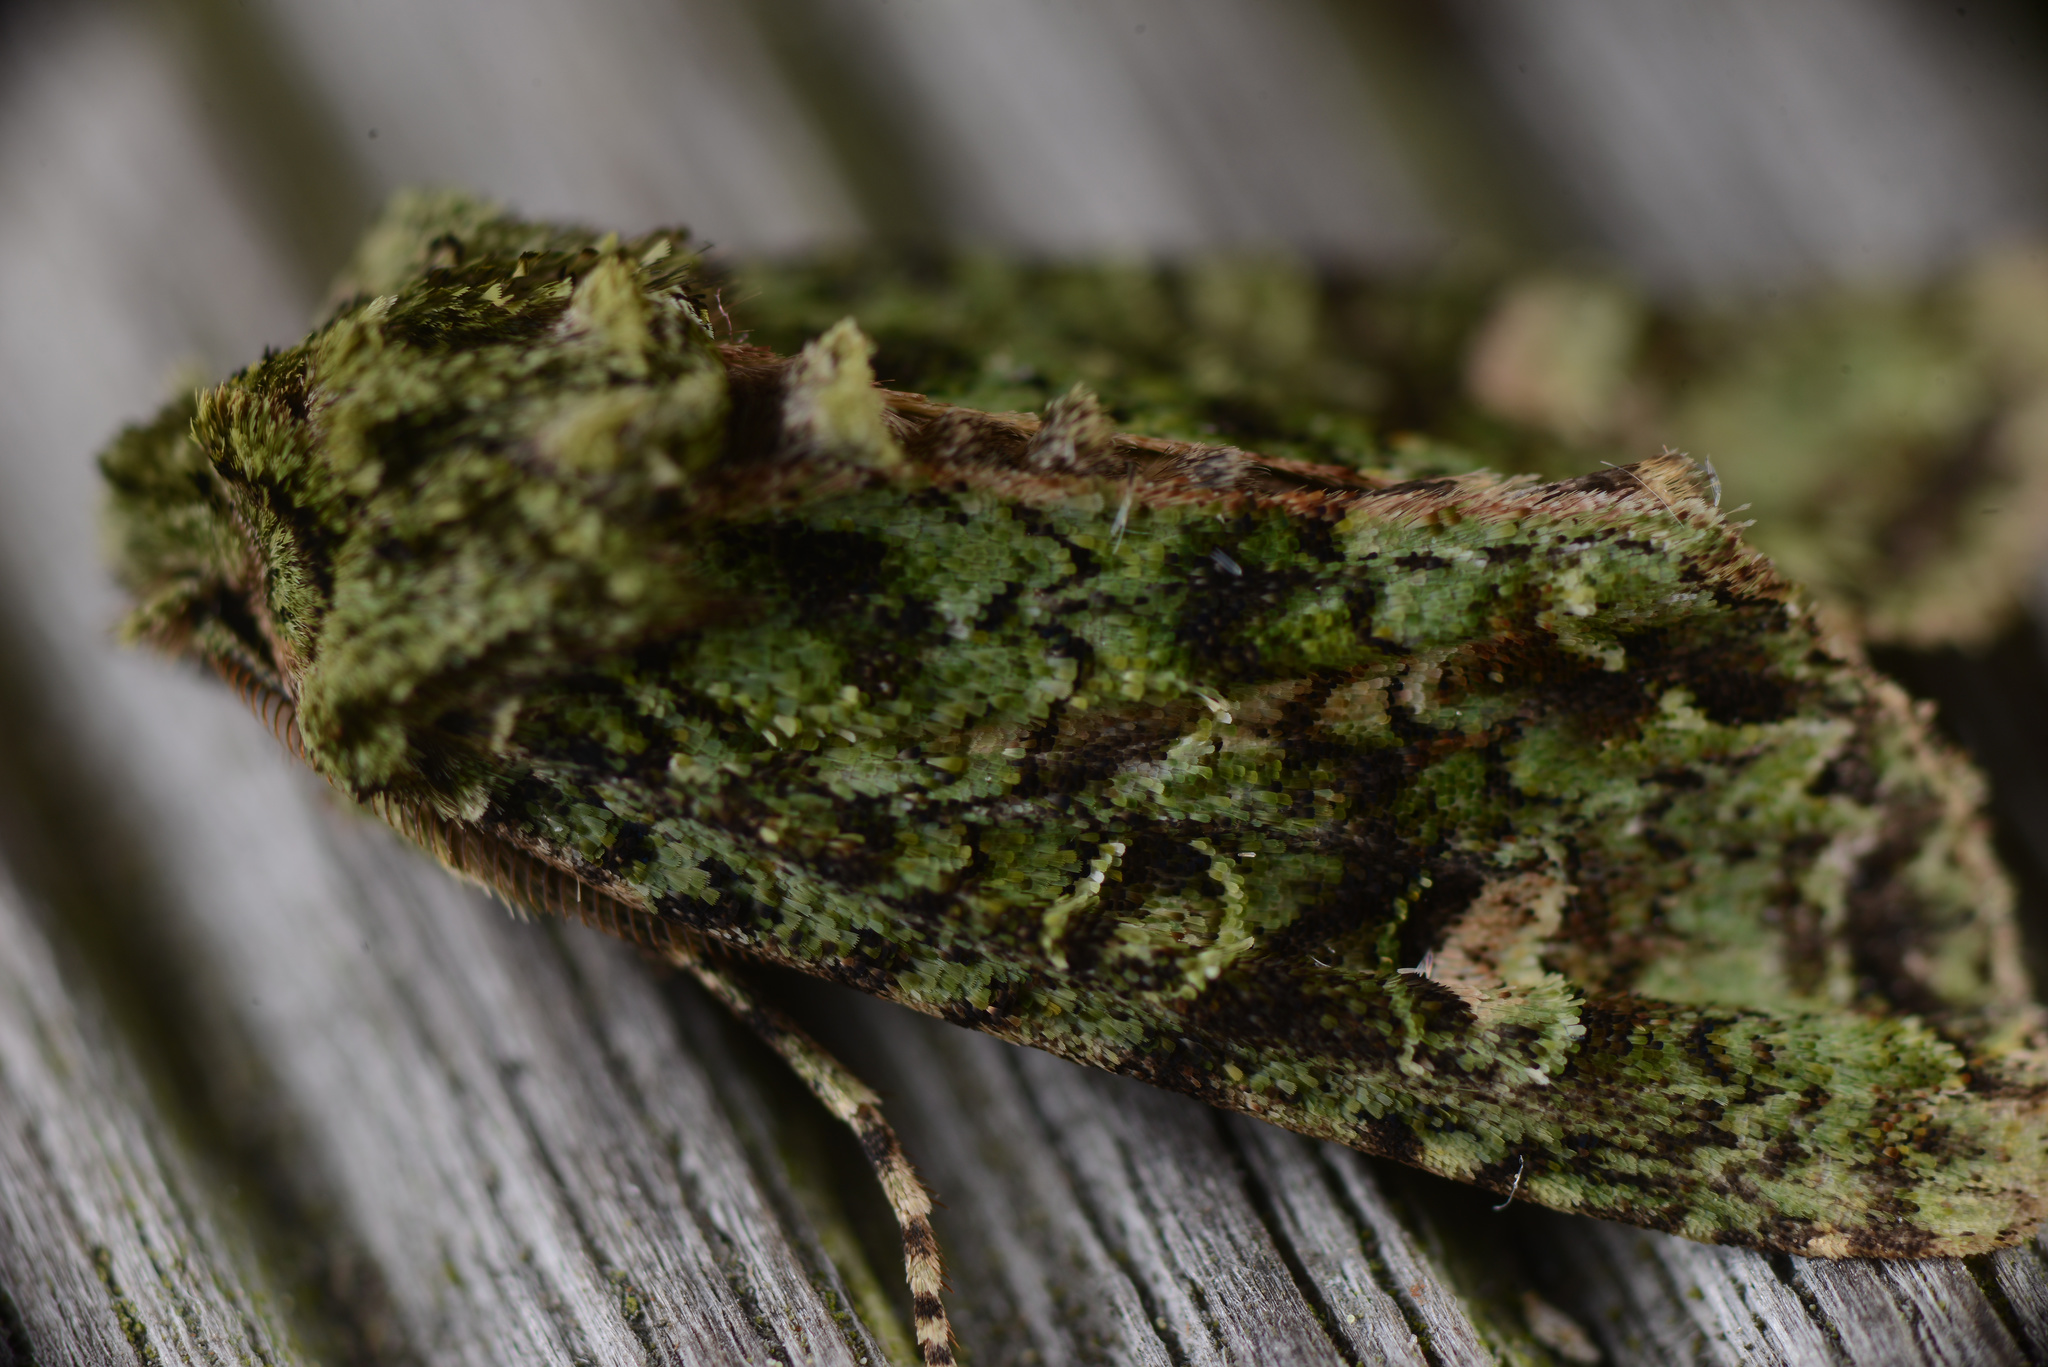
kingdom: Animalia
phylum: Arthropoda
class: Insecta
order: Lepidoptera
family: Noctuidae
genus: Ichneutica
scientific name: Ichneutica
